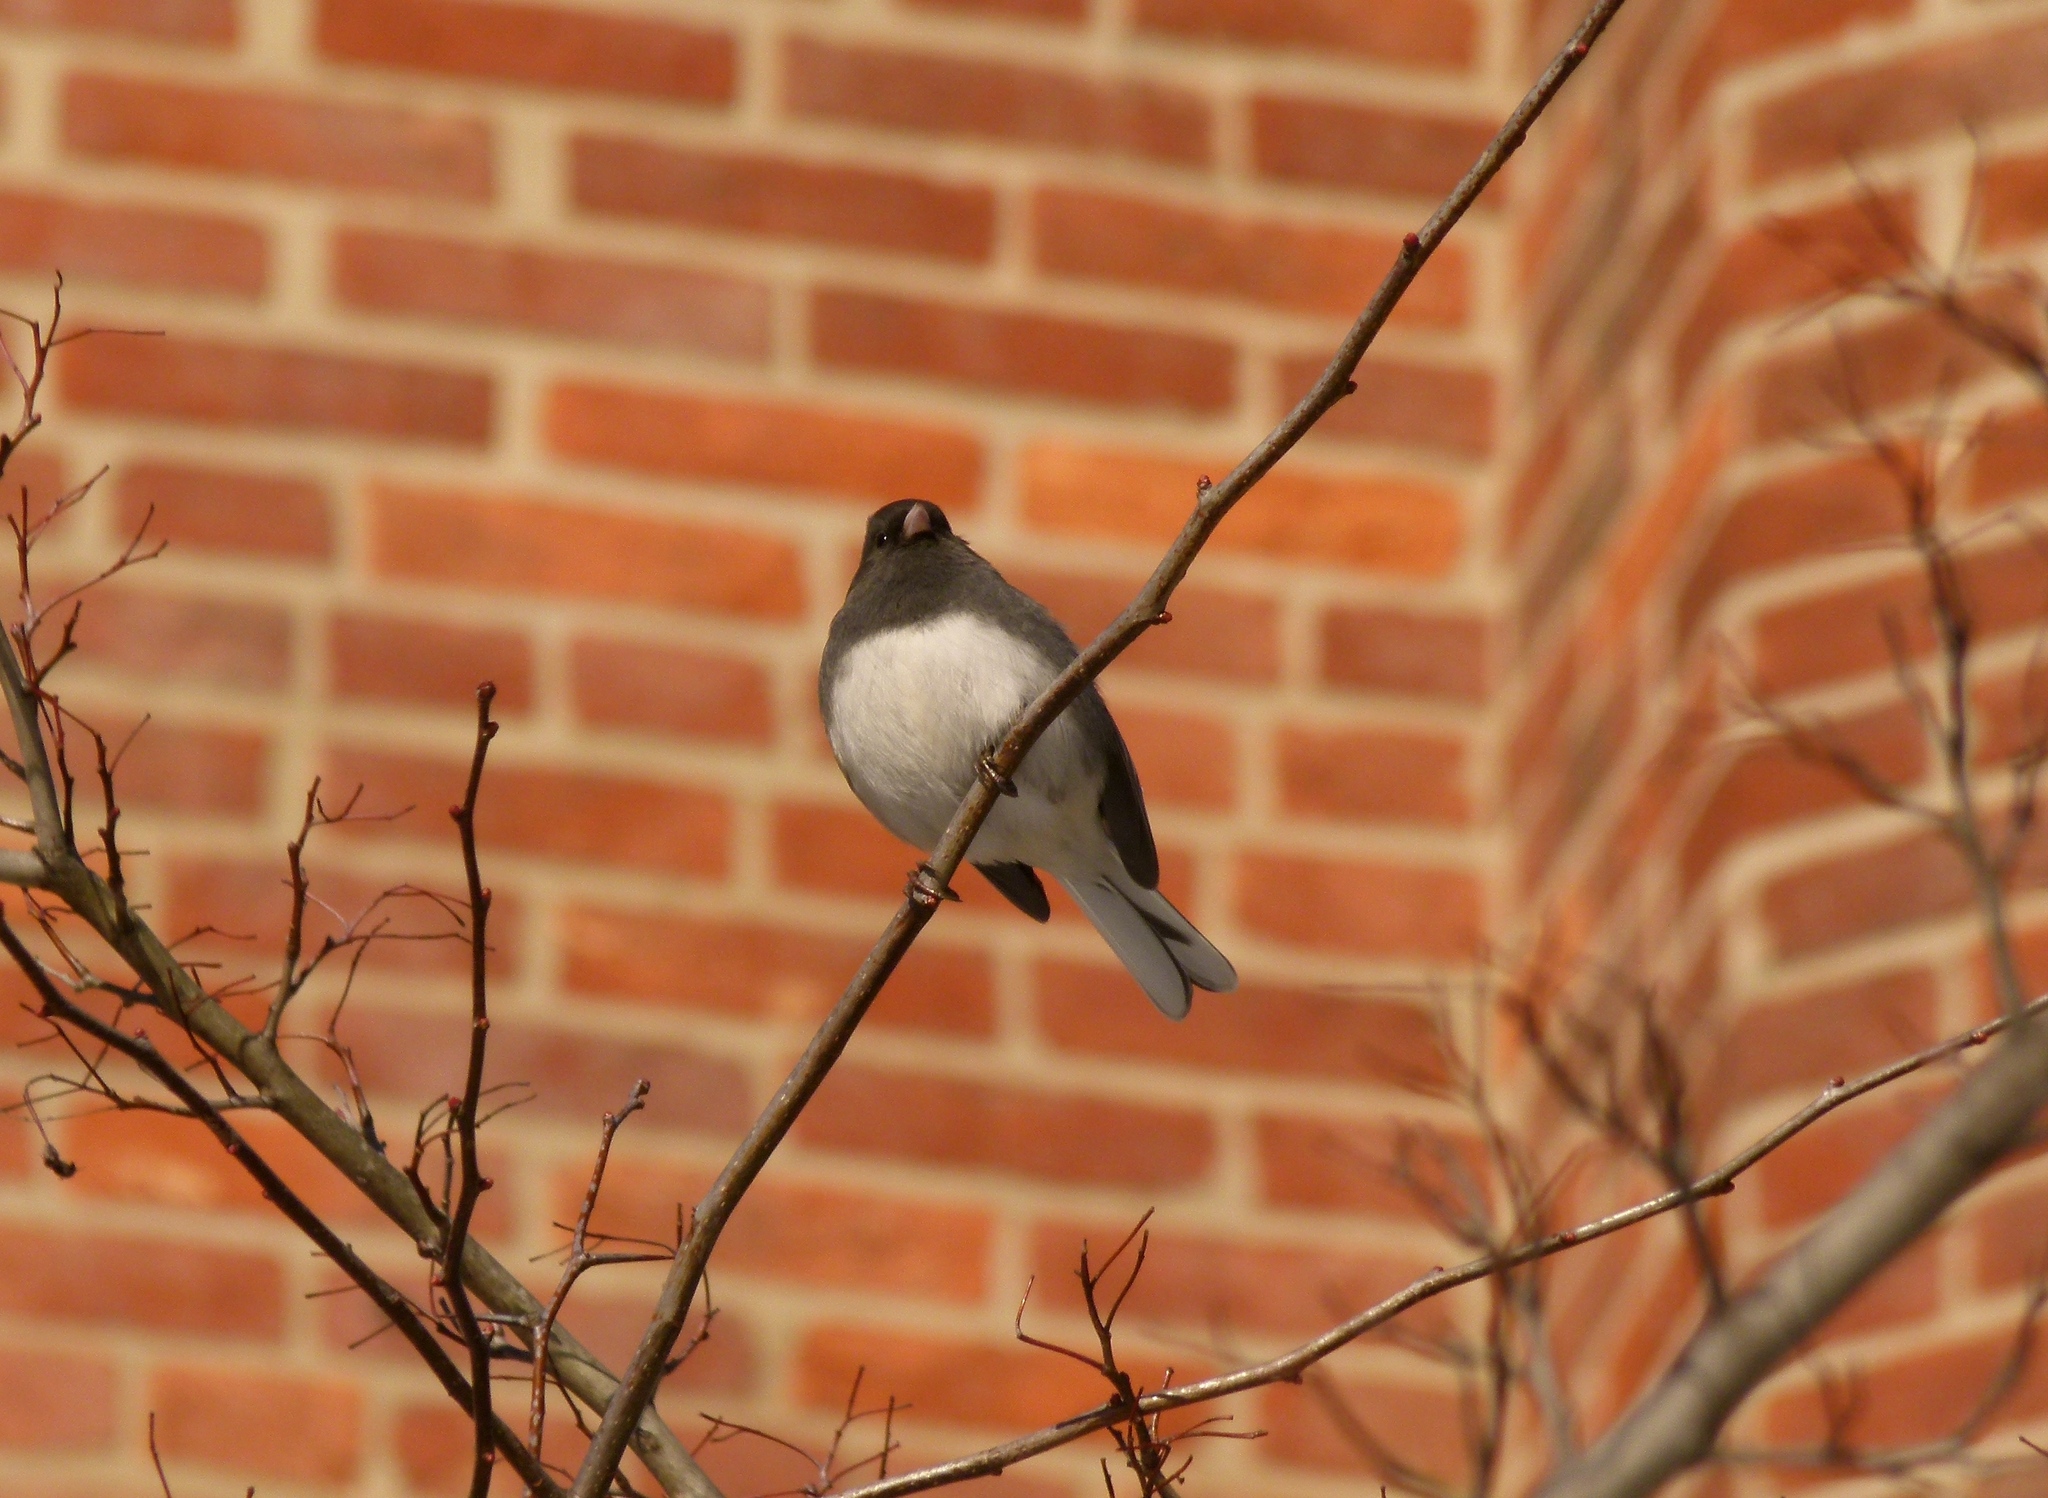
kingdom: Animalia
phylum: Chordata
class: Aves
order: Passeriformes
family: Passerellidae
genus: Junco
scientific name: Junco hyemalis
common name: Dark-eyed junco
